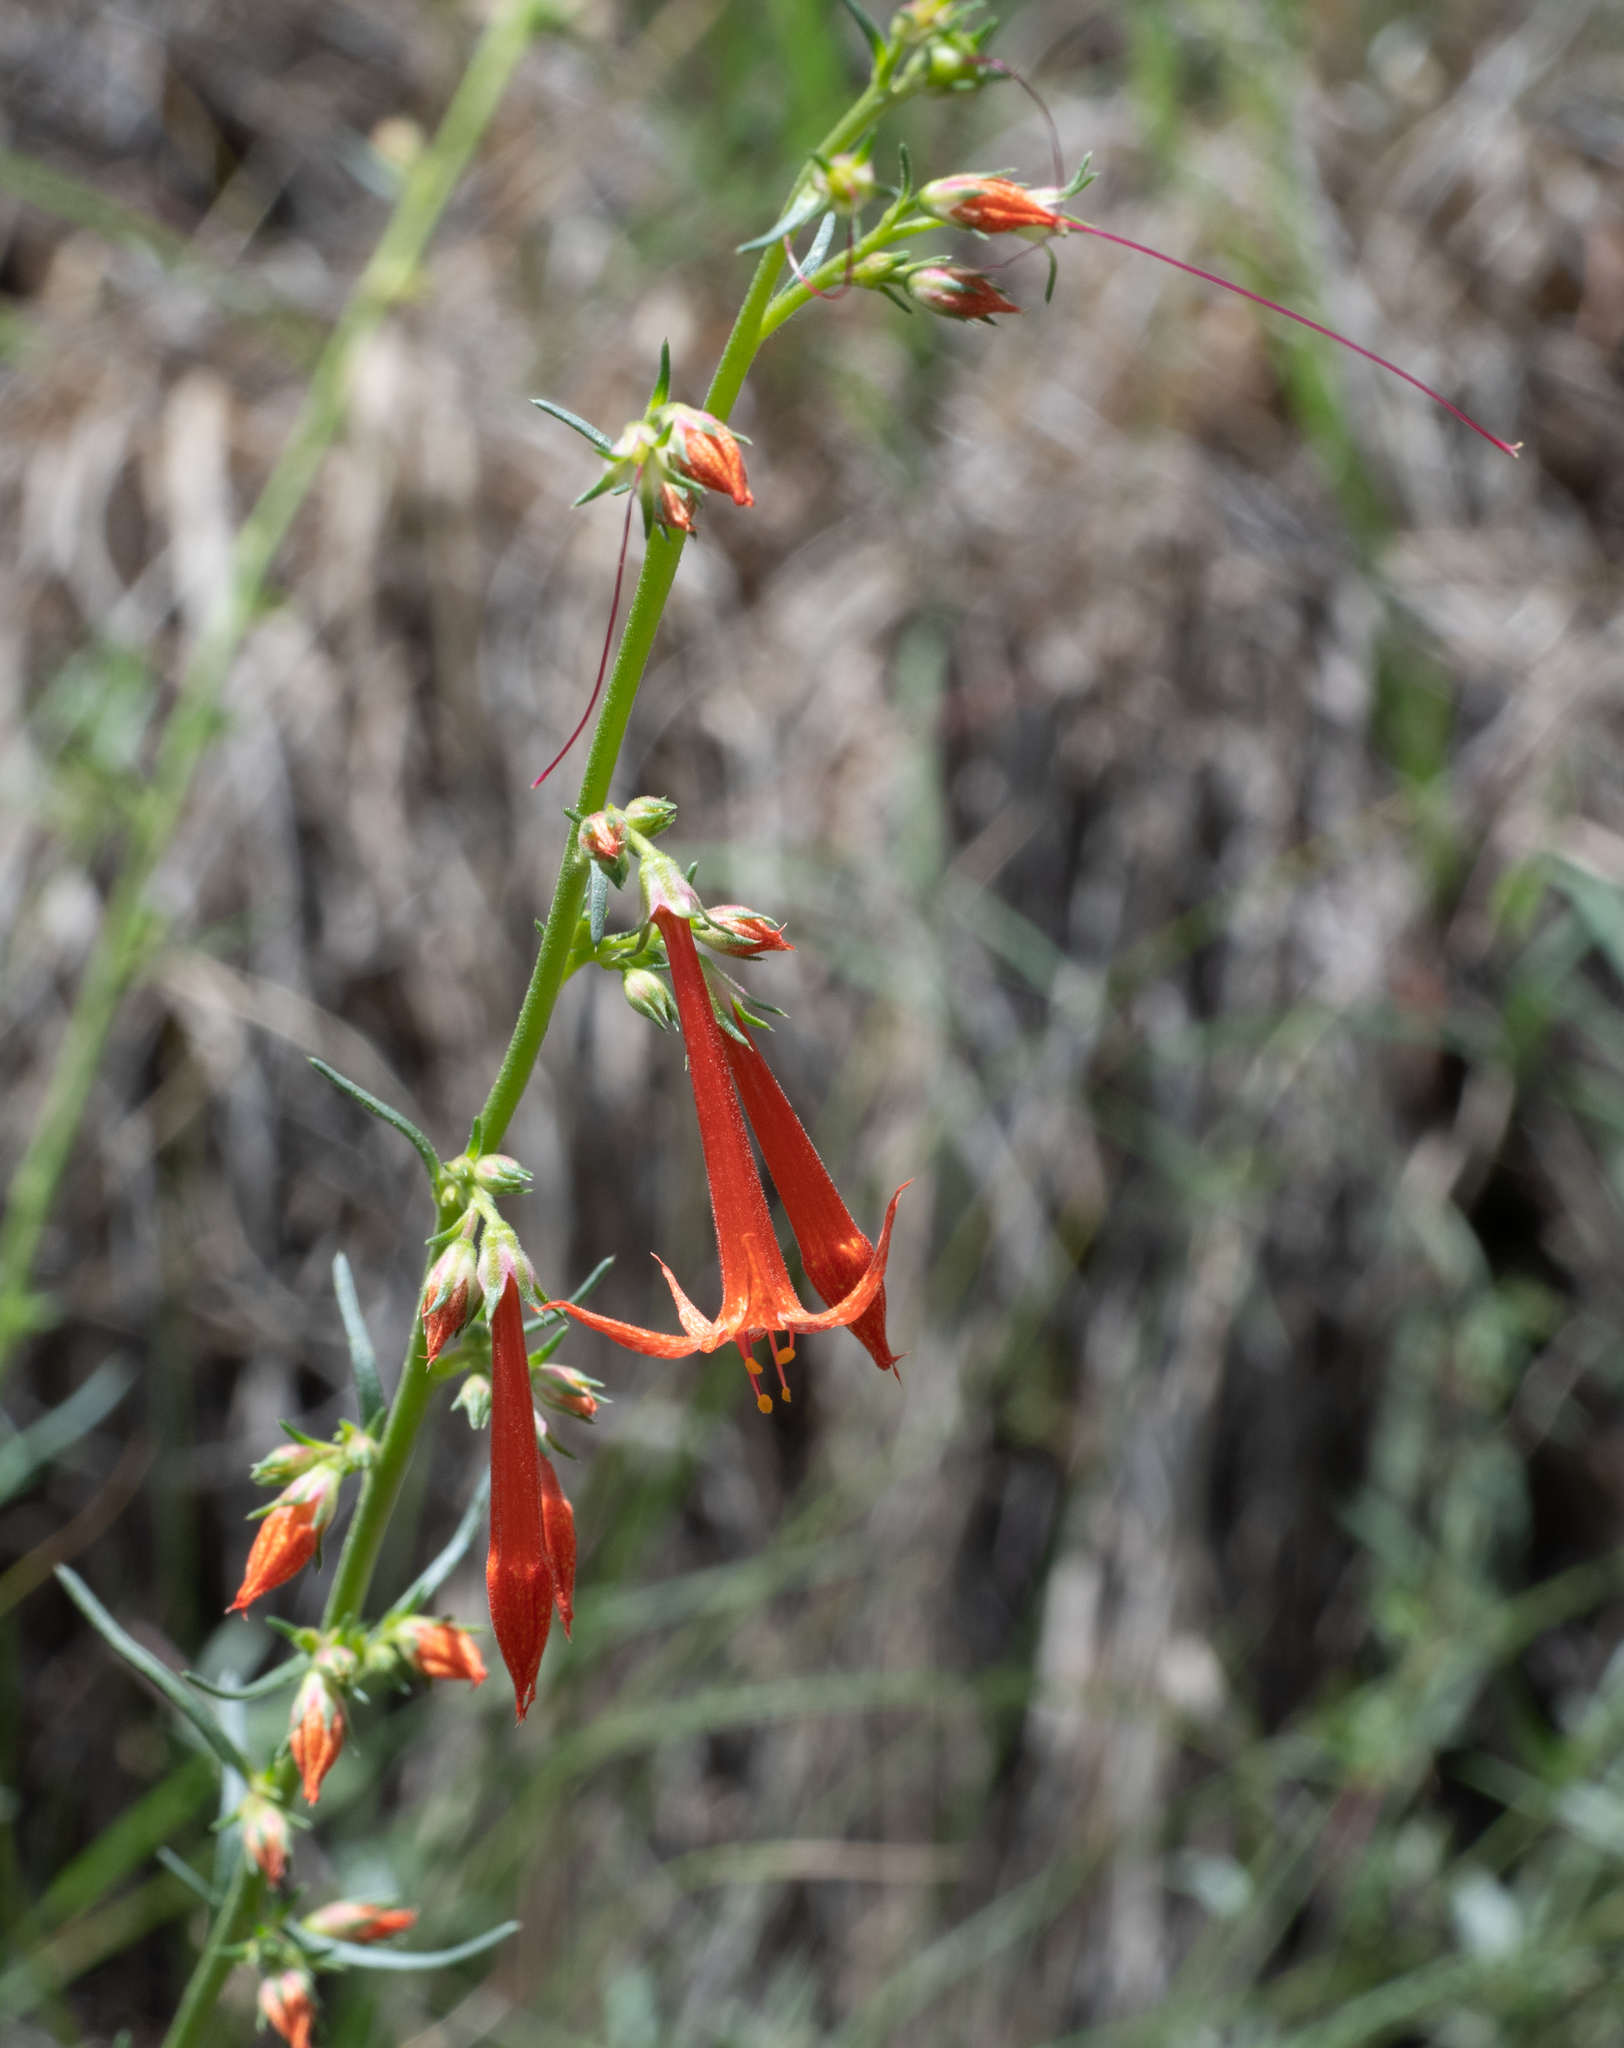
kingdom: Plantae
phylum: Tracheophyta
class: Magnoliopsida
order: Ericales
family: Polemoniaceae
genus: Ipomopsis
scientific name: Ipomopsis aggregata
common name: Scarlet gilia
